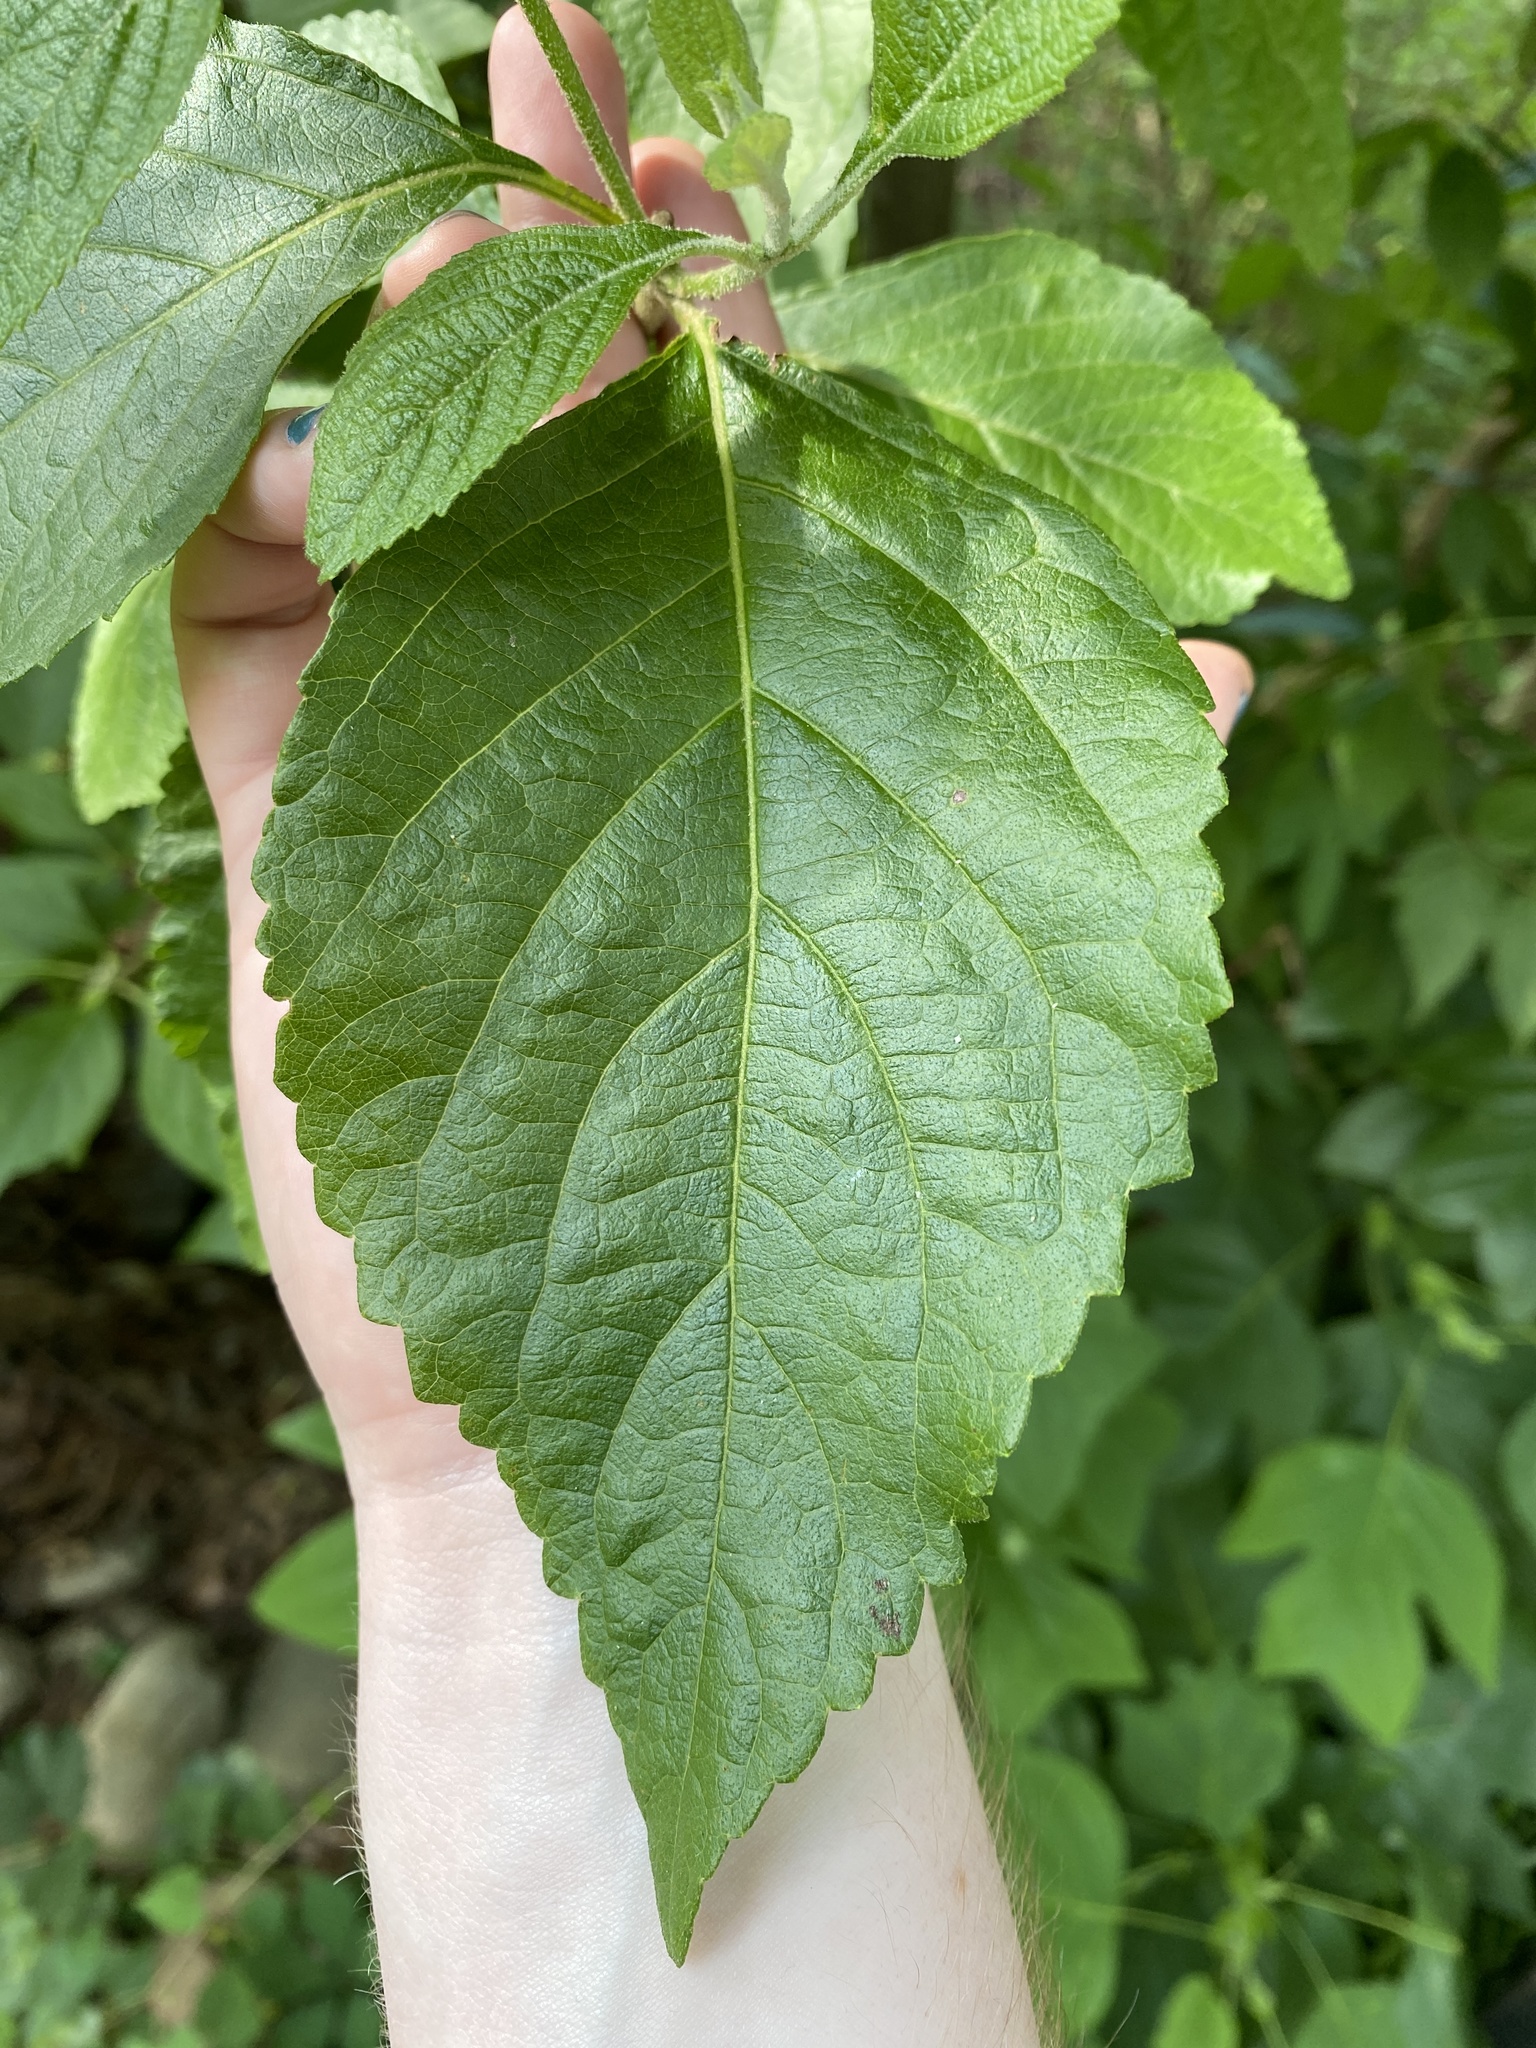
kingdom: Plantae
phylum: Tracheophyta
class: Magnoliopsida
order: Lamiales
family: Lamiaceae
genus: Callicarpa
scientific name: Callicarpa americana
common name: American beautyberry
